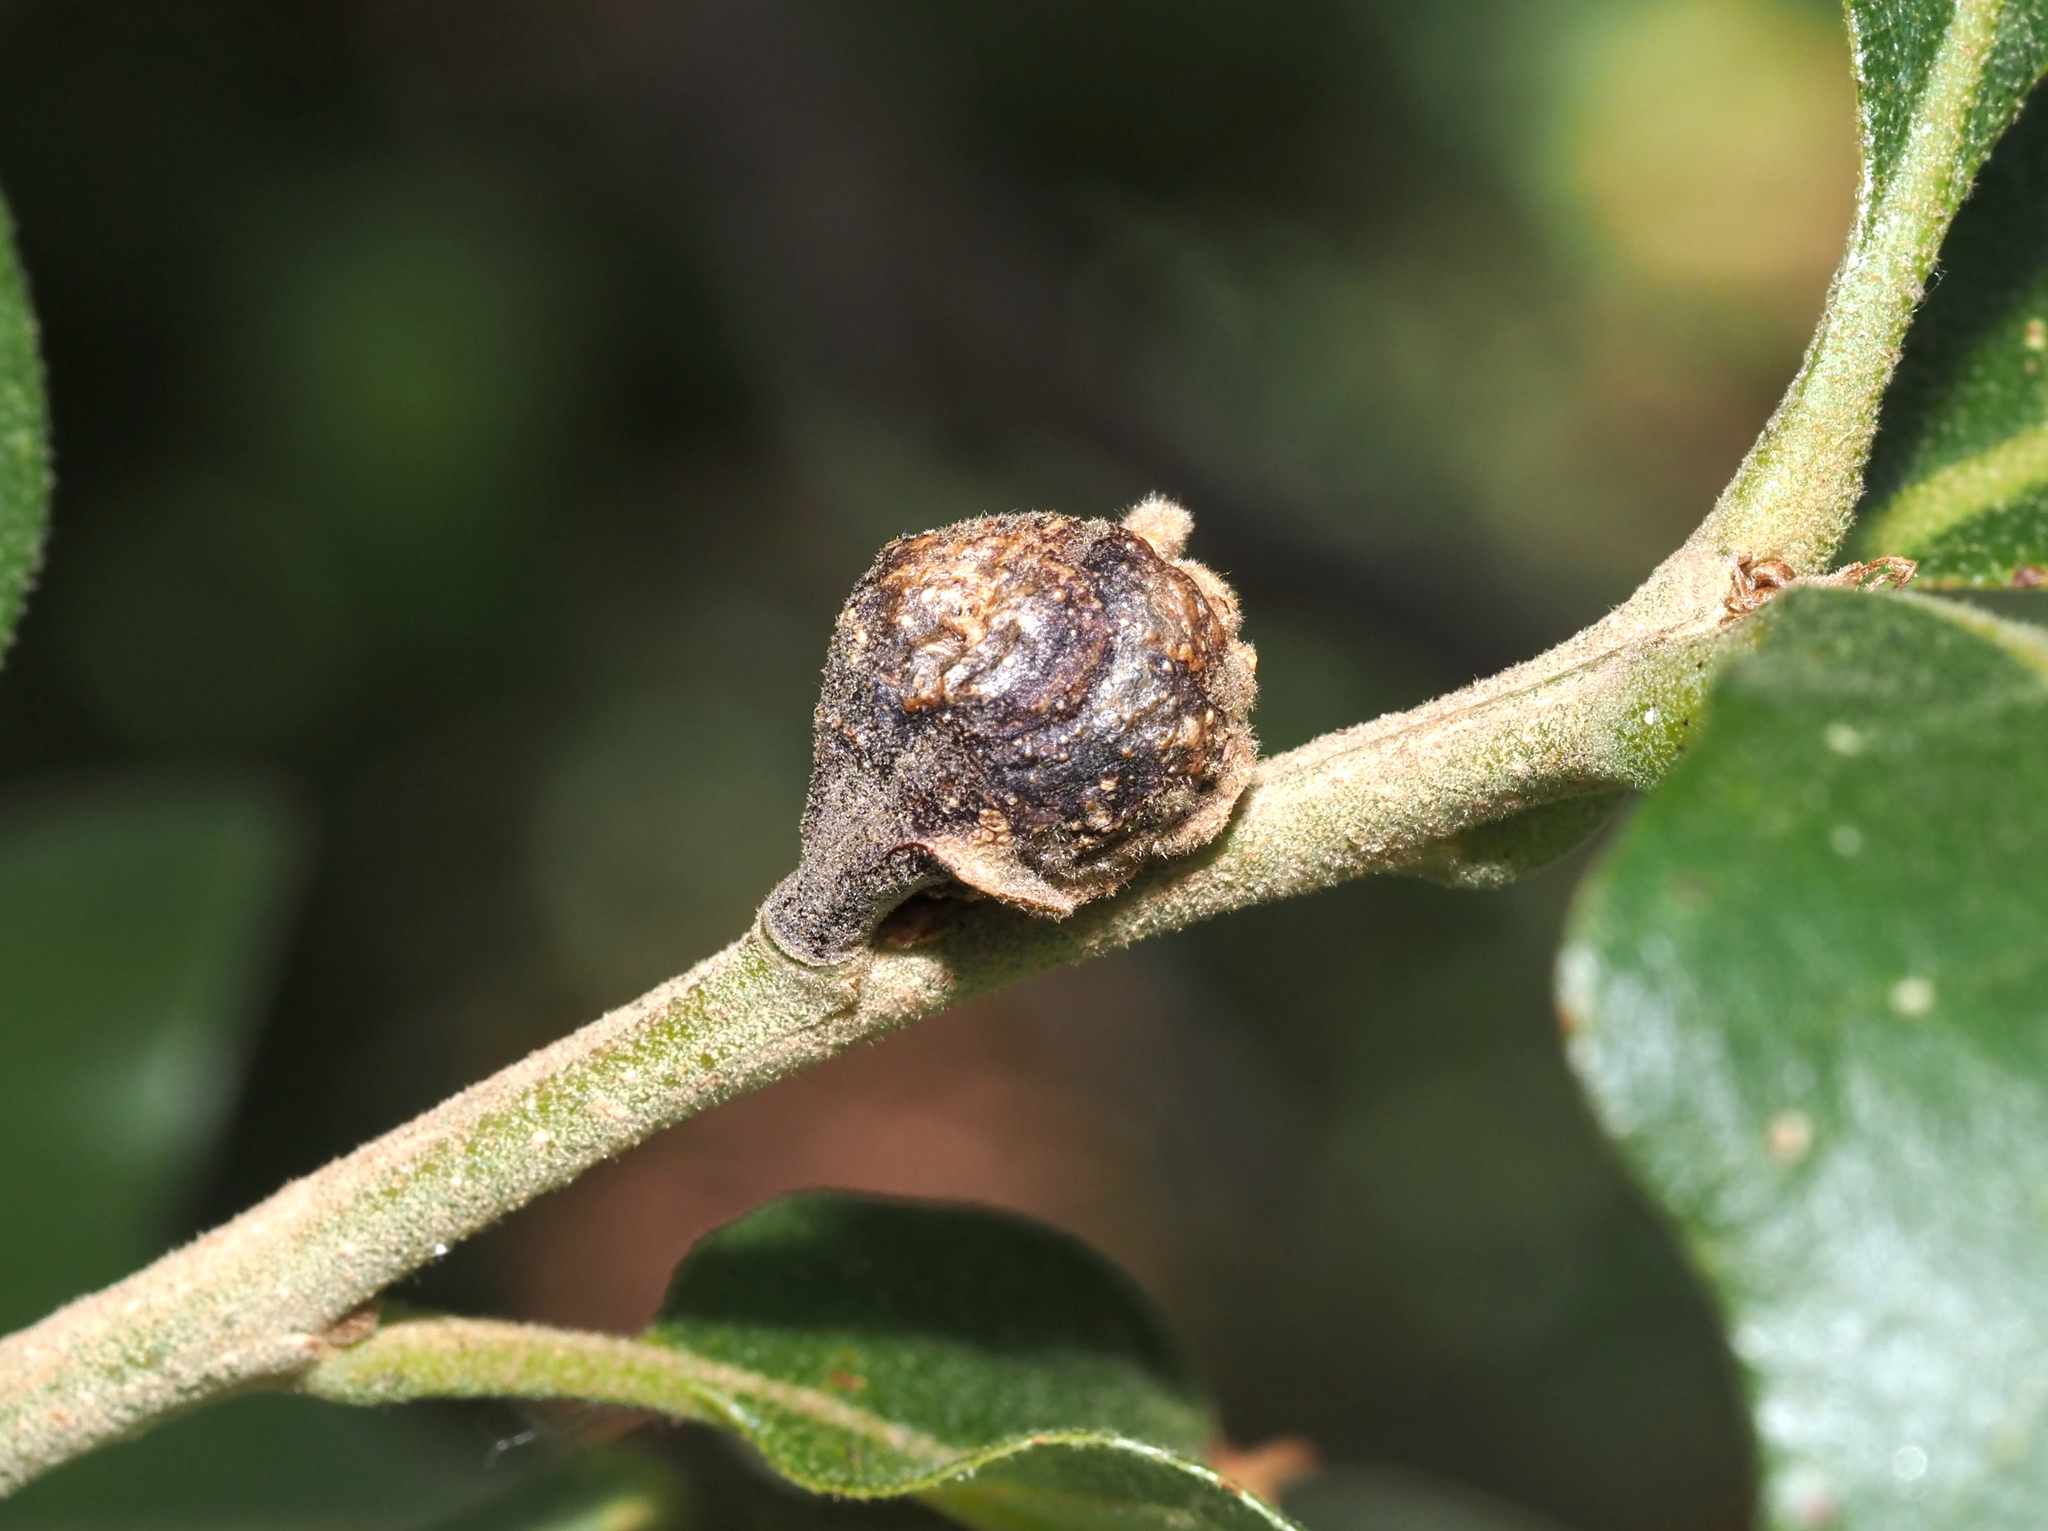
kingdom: Animalia
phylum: Arthropoda
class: Insecta
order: Hymenoptera
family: Cynipidae
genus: Andricus
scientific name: Andricus
